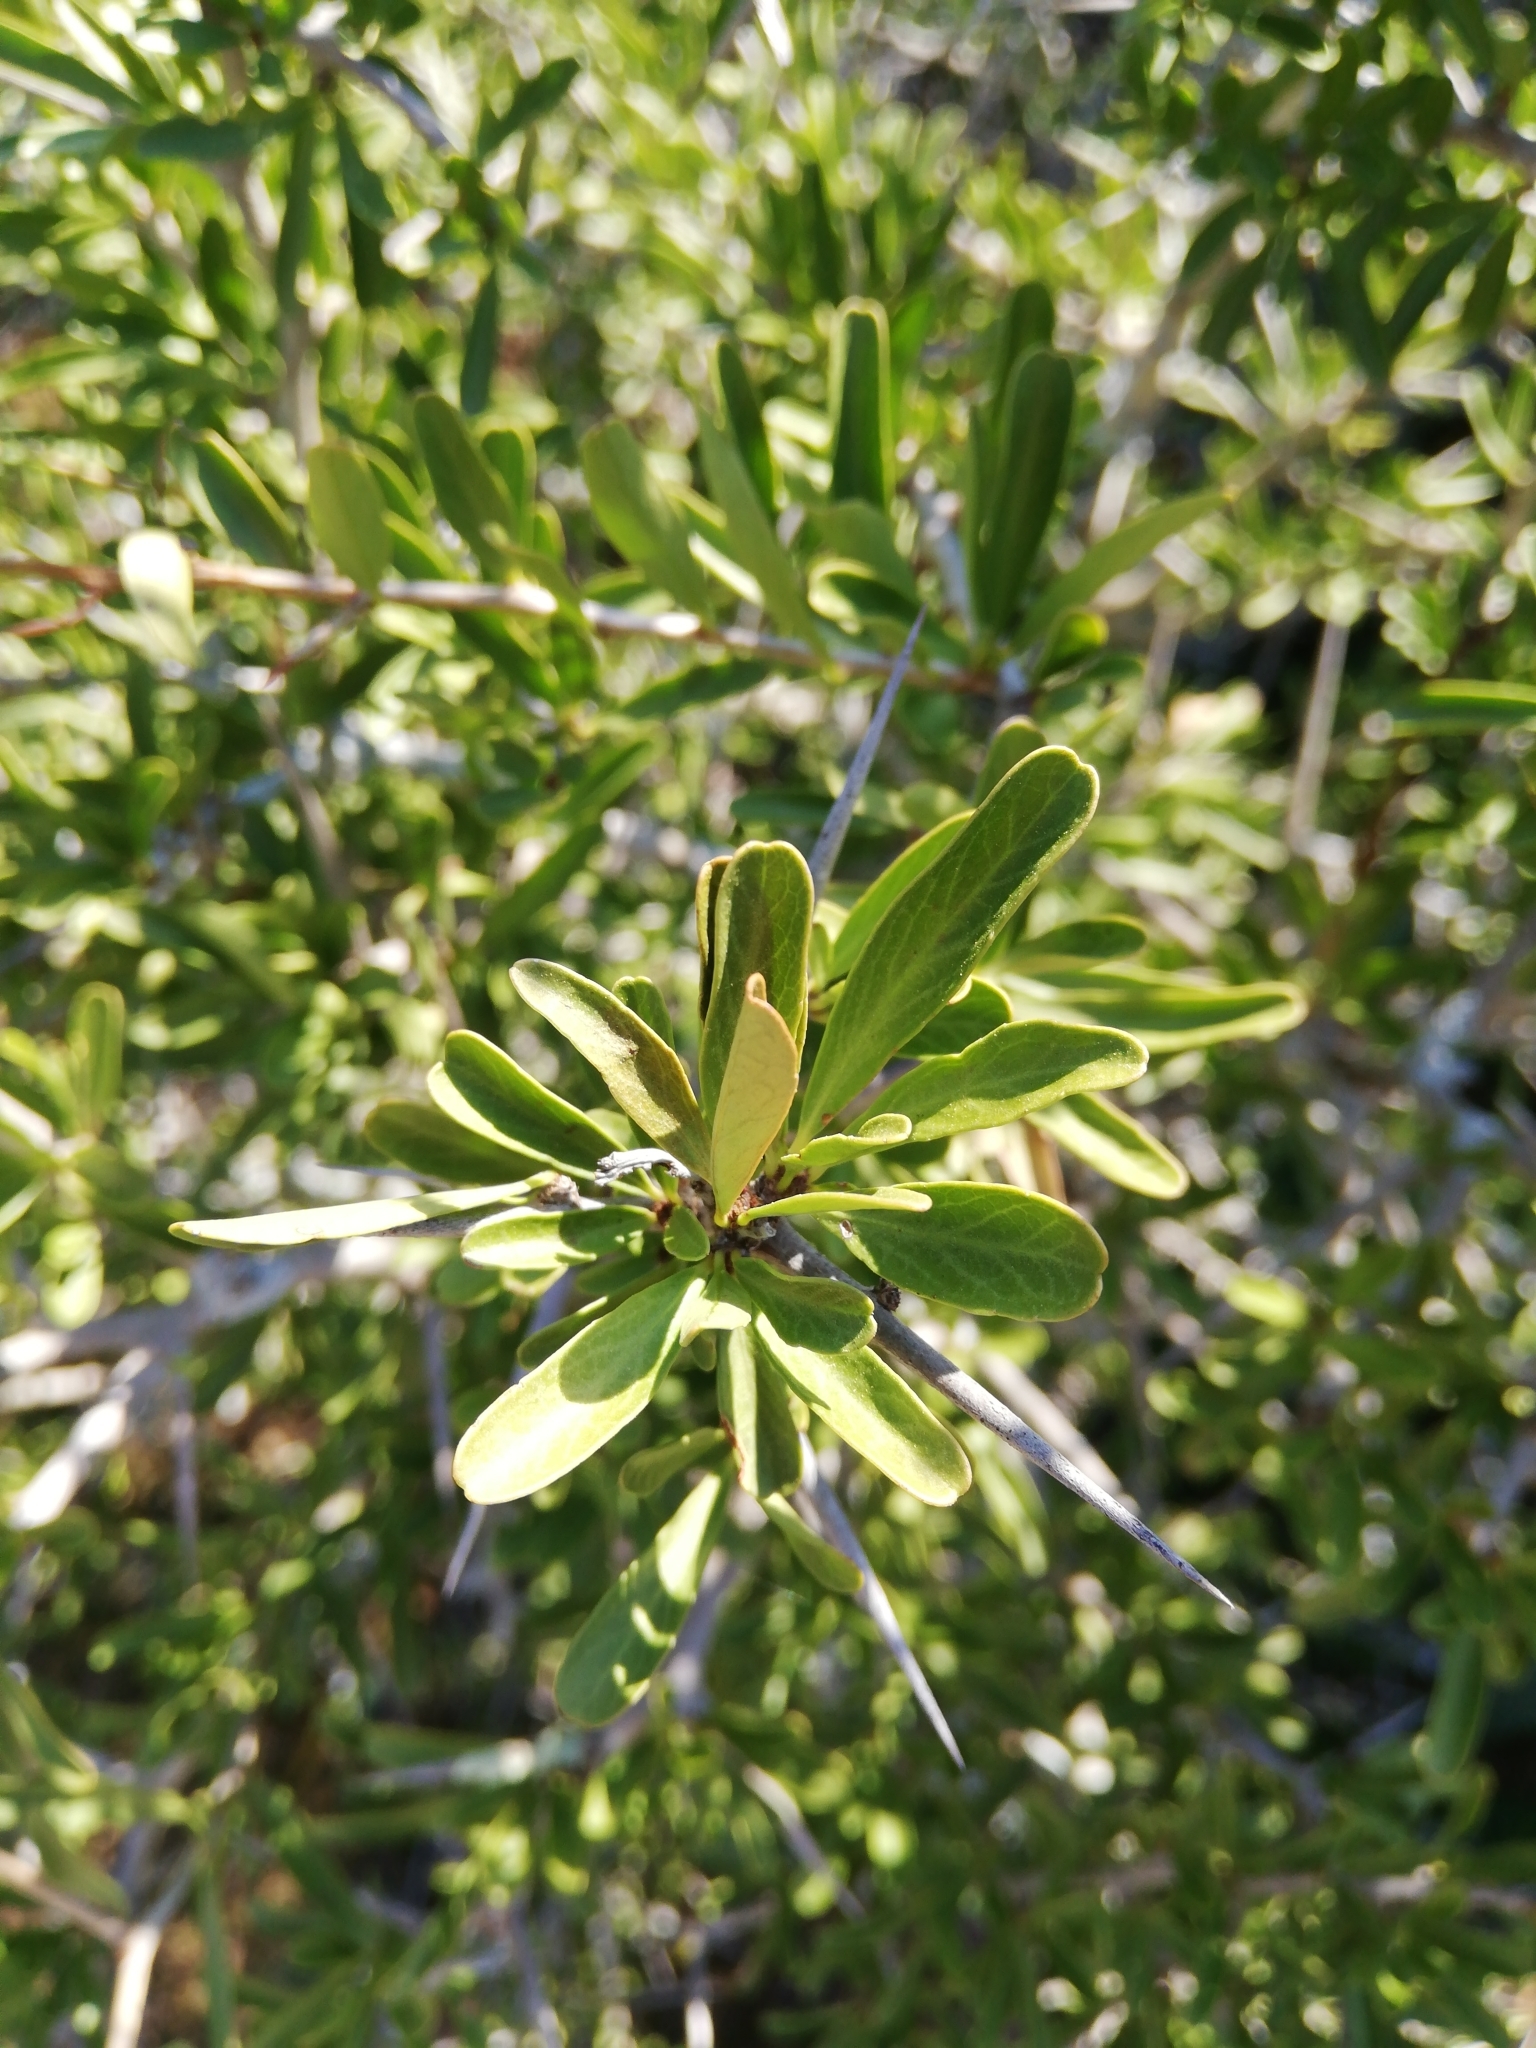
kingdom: Plantae
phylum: Tracheophyta
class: Magnoliopsida
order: Celastrales
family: Celastraceae
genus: Gymnosporia
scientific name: Gymnosporia polyacantha
